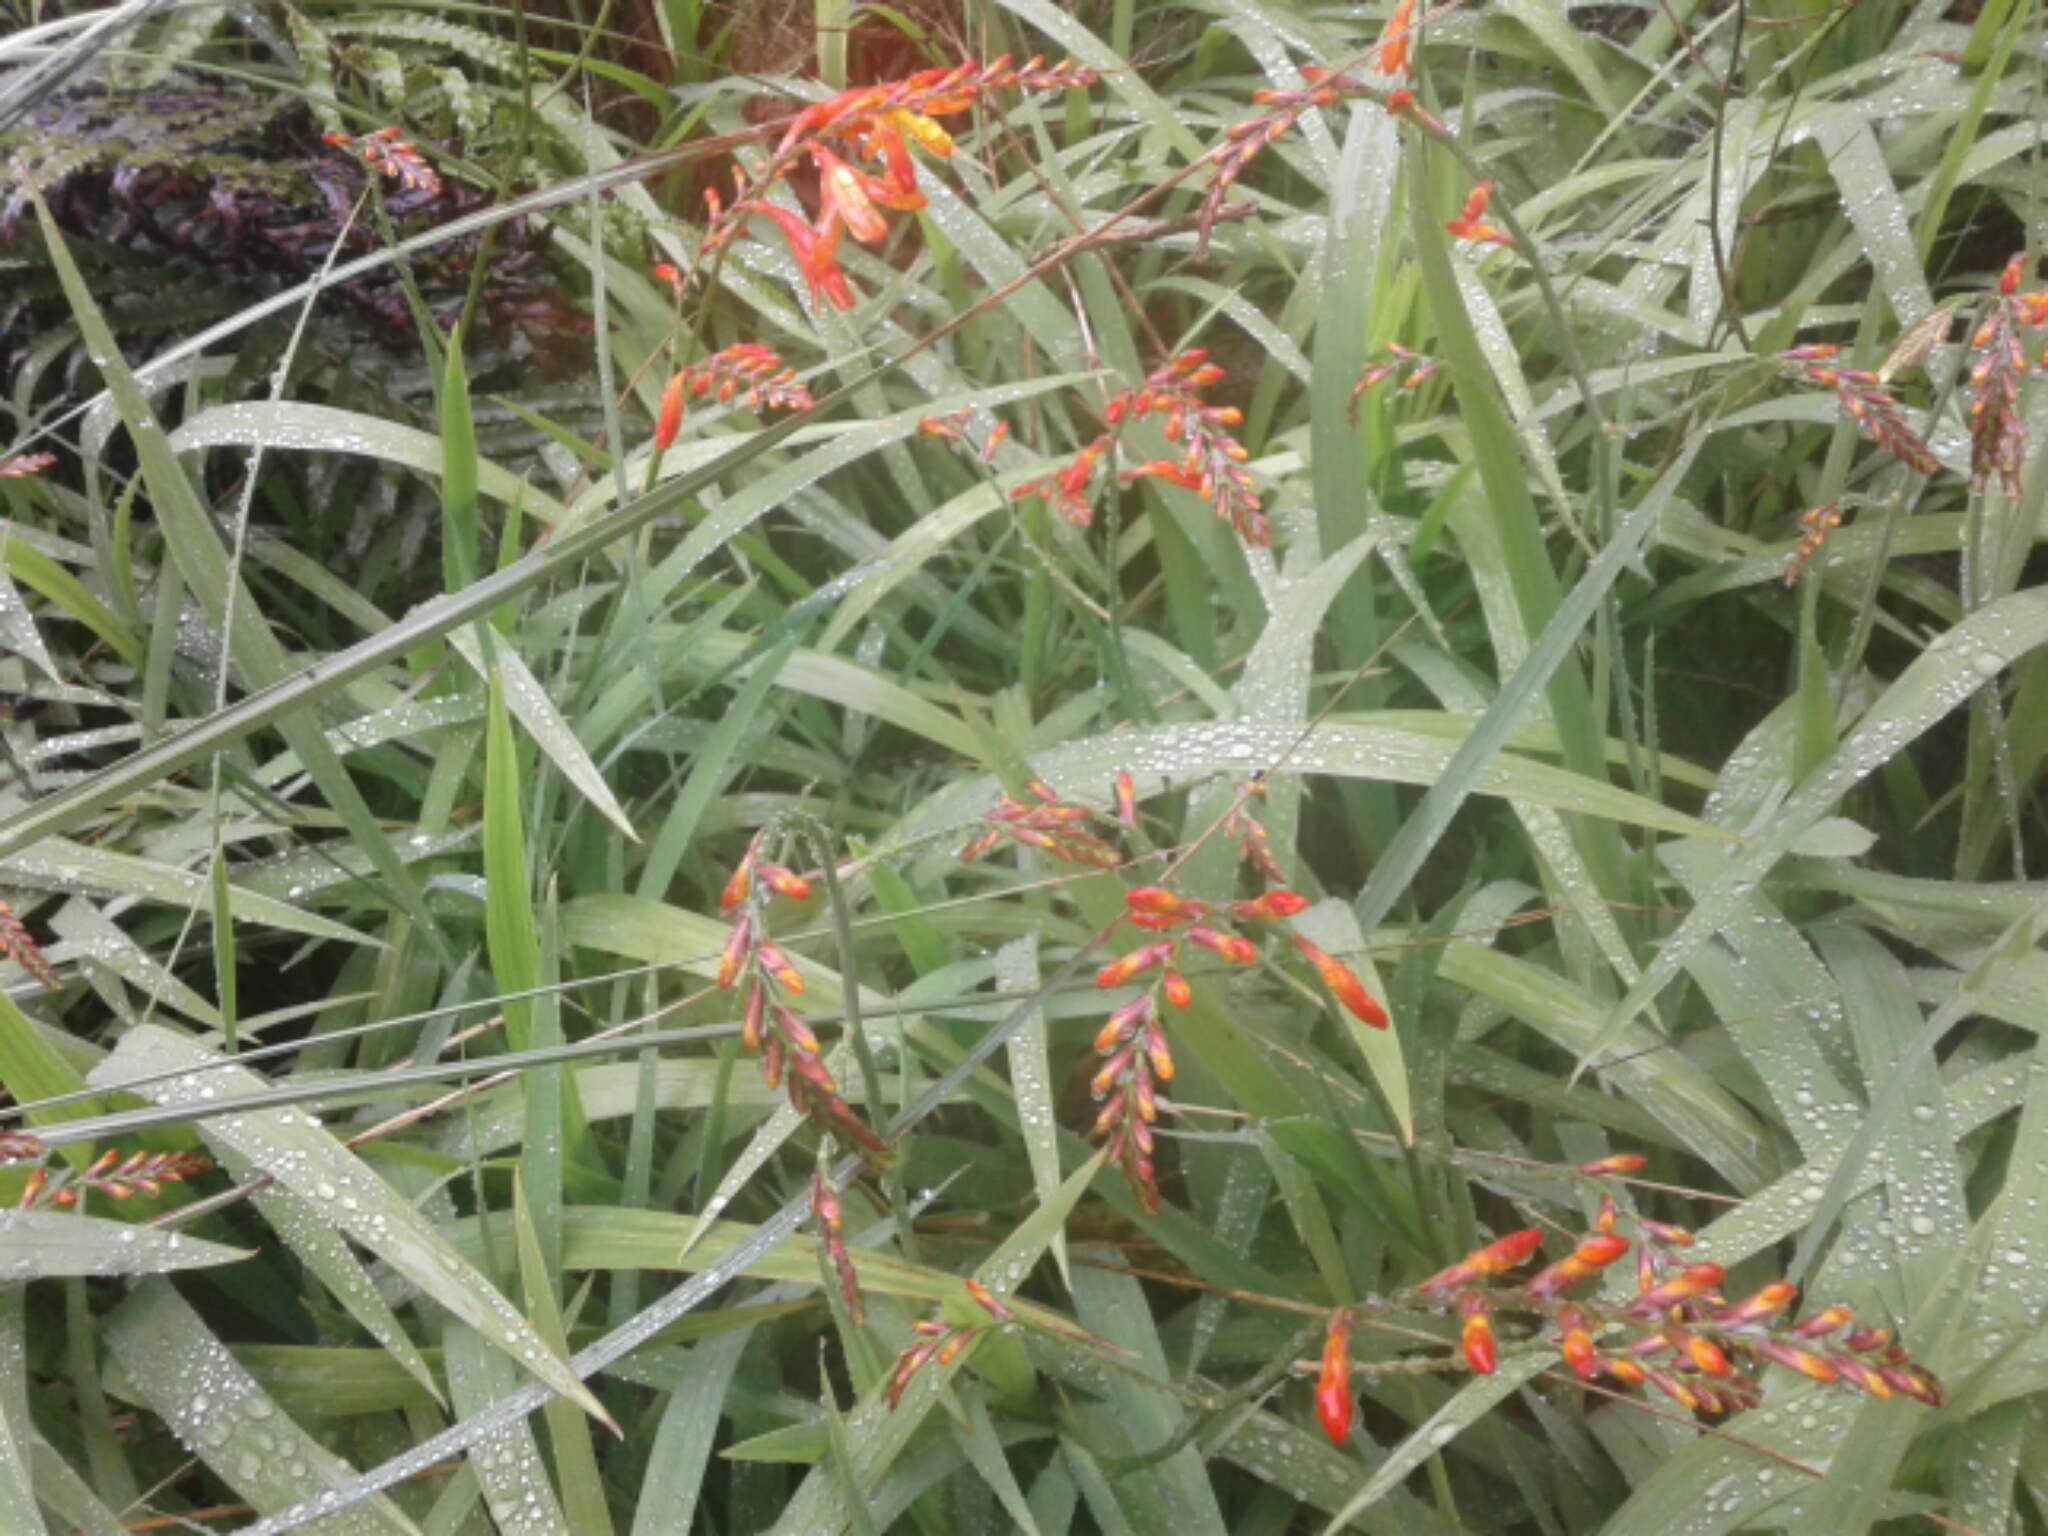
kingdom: Plantae
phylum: Tracheophyta
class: Liliopsida
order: Asparagales
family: Iridaceae
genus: Crocosmia
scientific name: Crocosmia crocosmiiflora
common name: Montbretia
